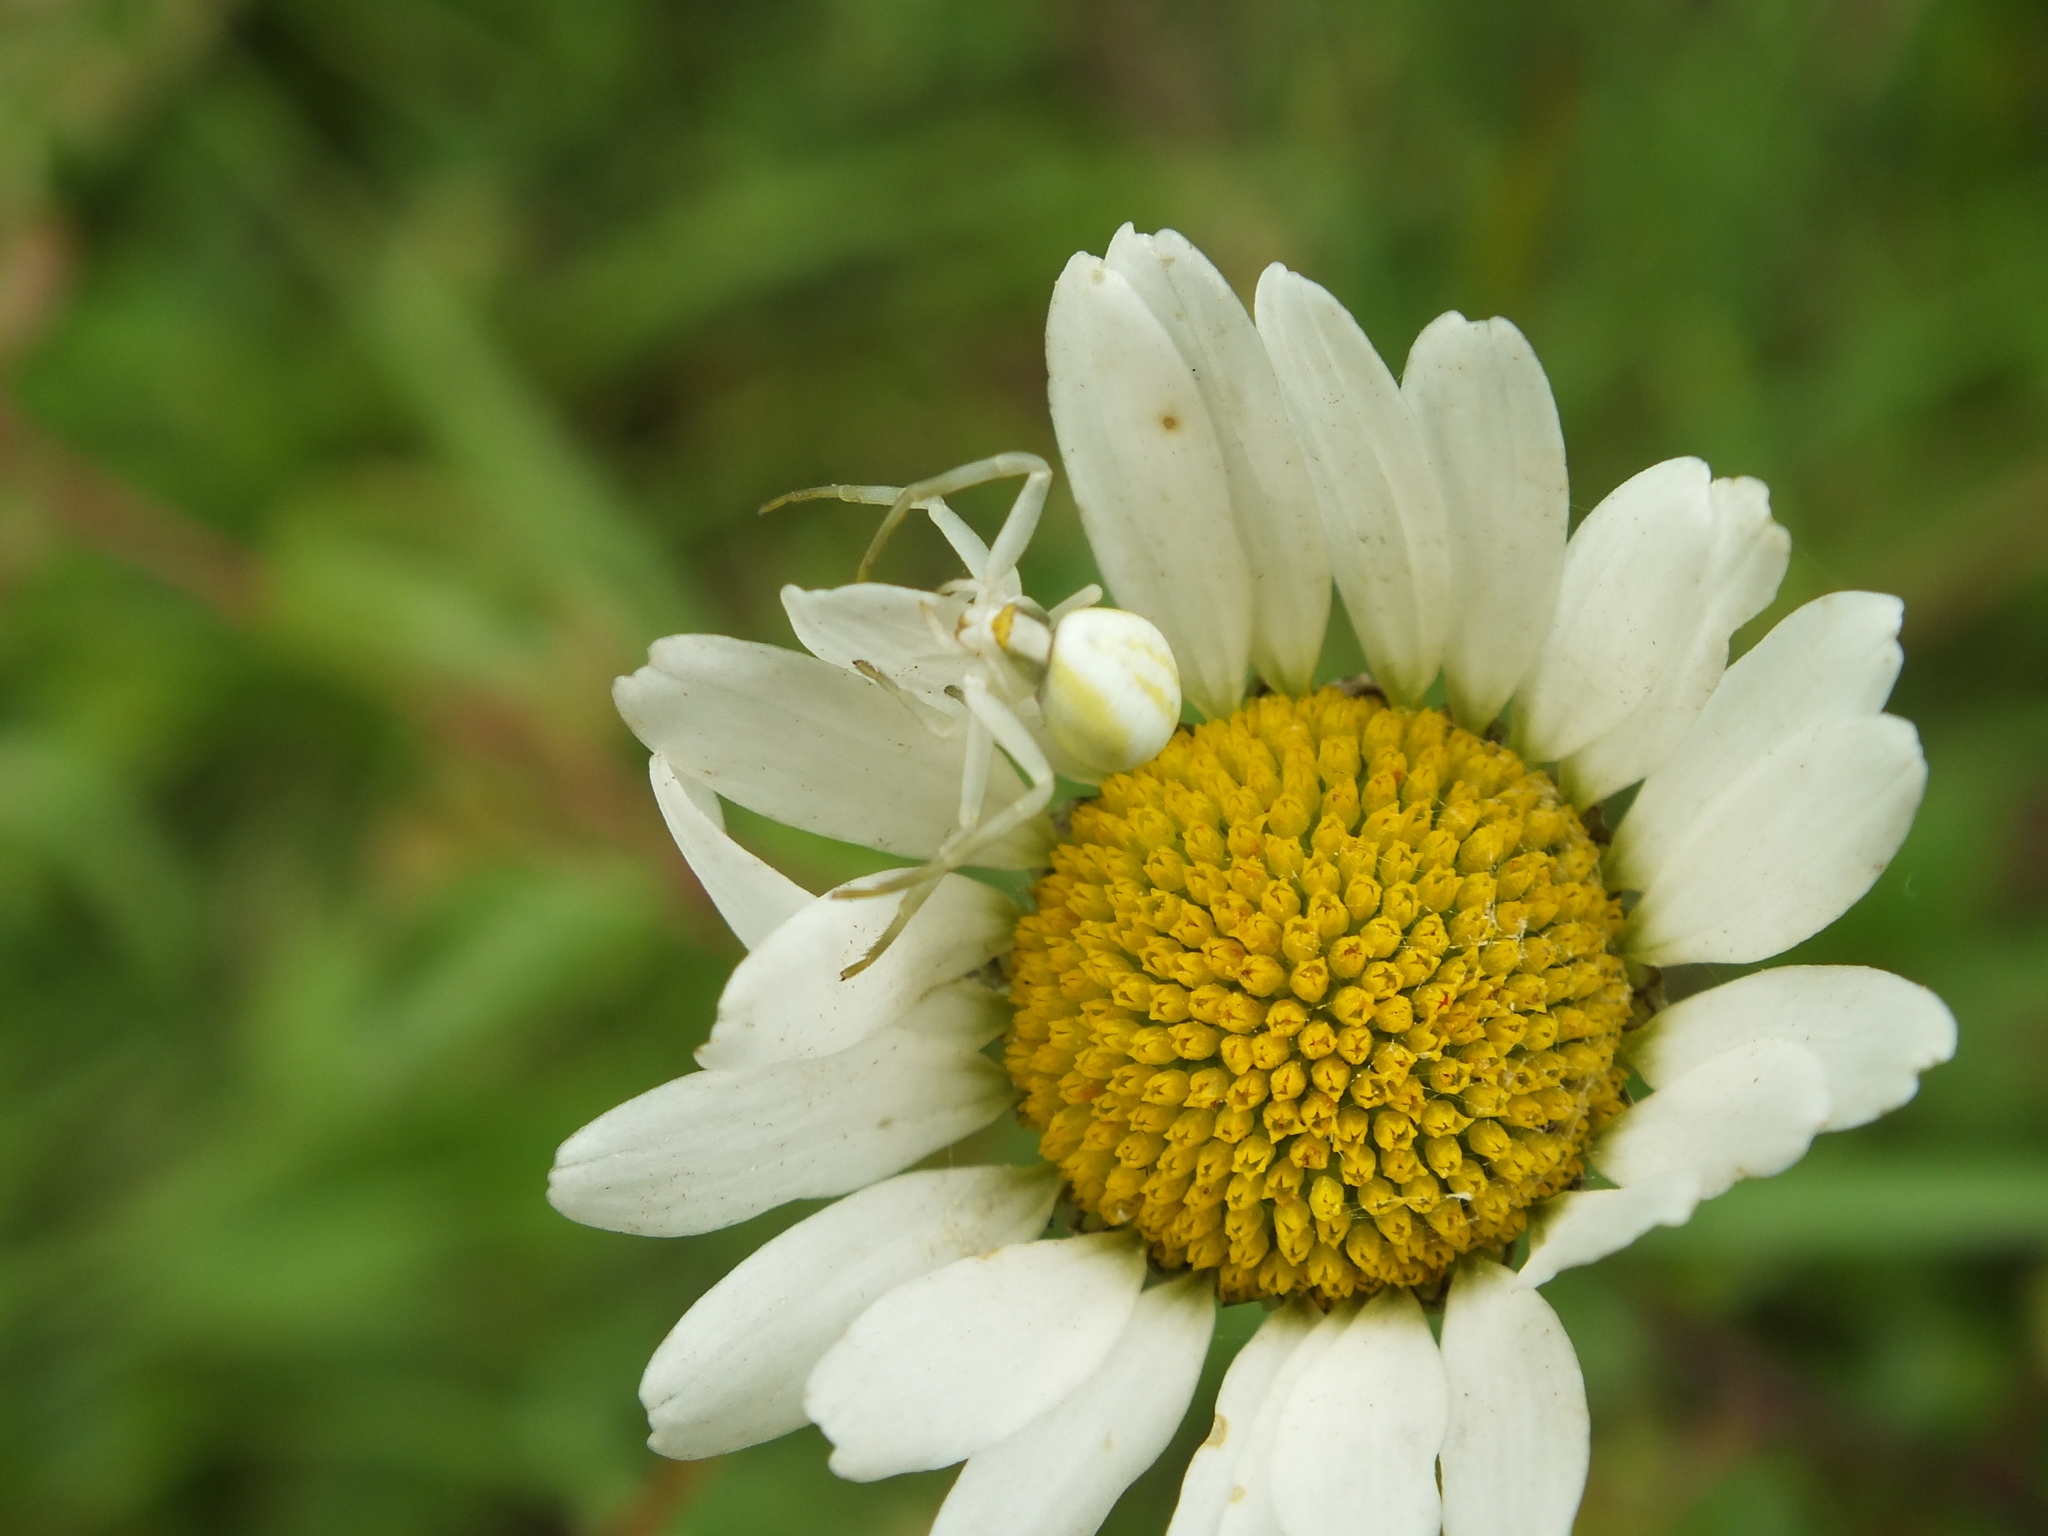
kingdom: Animalia
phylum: Arthropoda
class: Arachnida
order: Araneae
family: Thomisidae
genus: Misumena
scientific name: Misumena vatia
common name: Goldenrod crab spider
